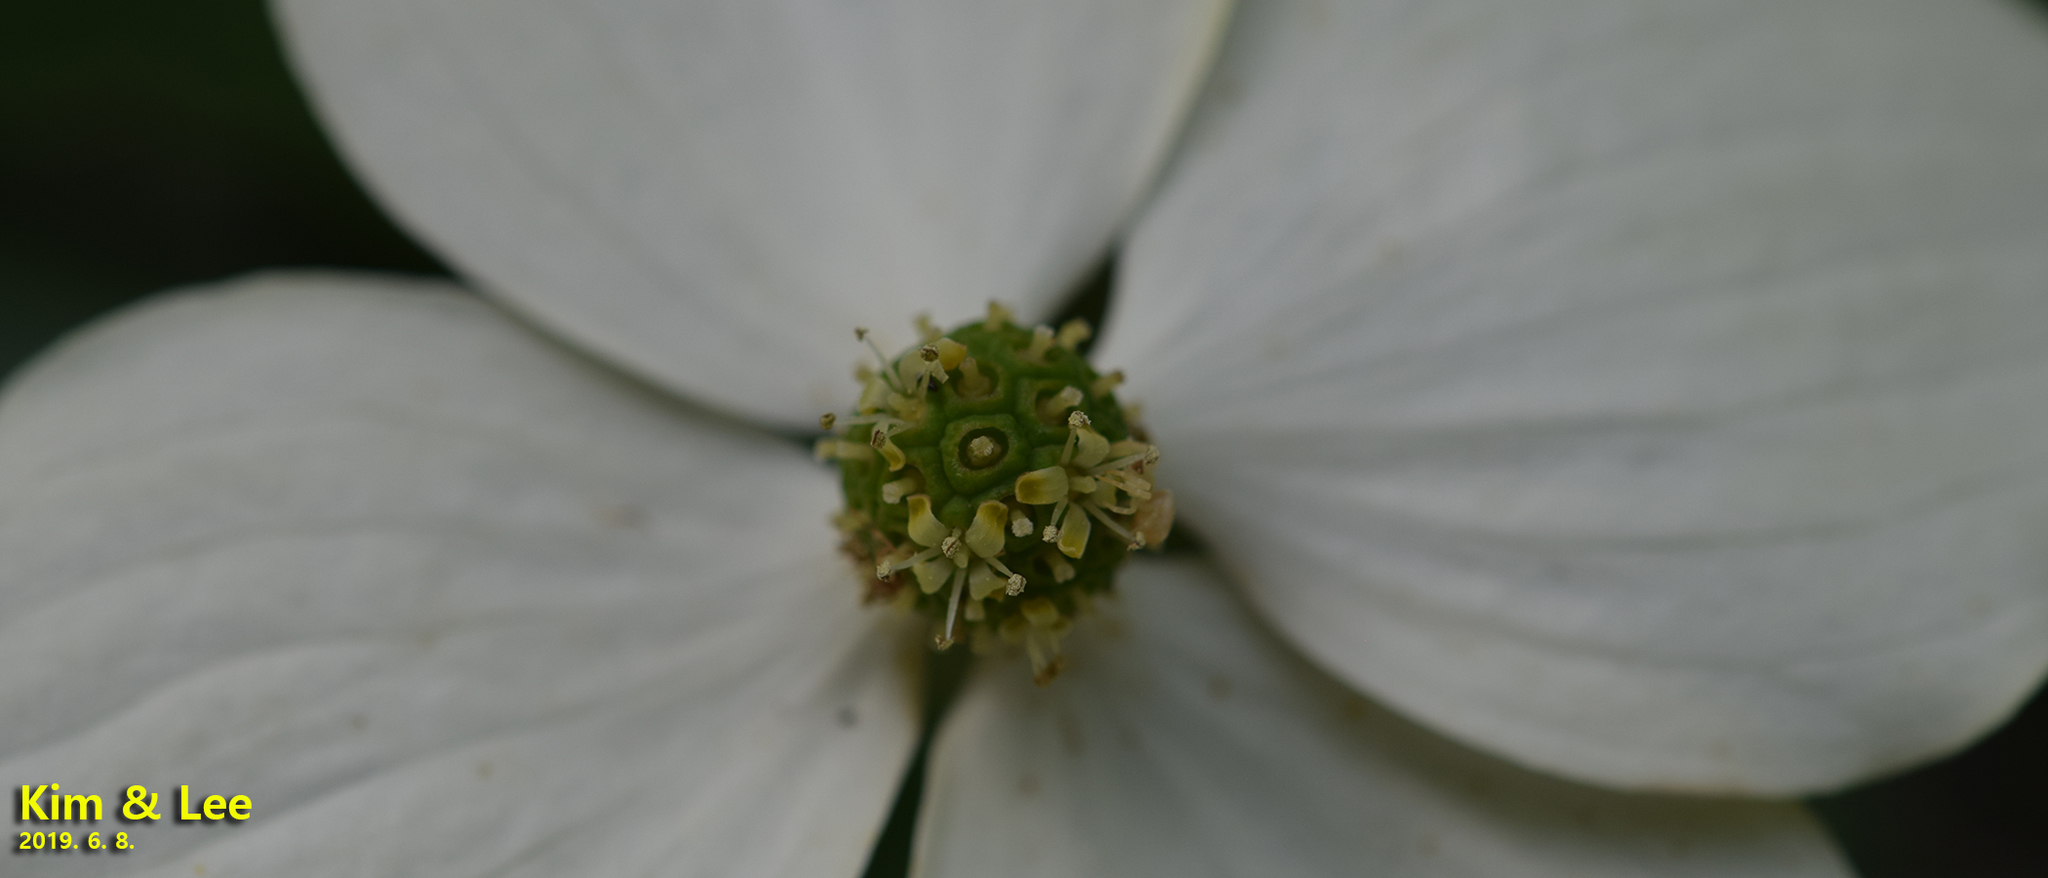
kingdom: Plantae
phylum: Tracheophyta
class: Magnoliopsida
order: Cornales
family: Cornaceae
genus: Cornus
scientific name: Cornus kousa
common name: Japanese dogwood
